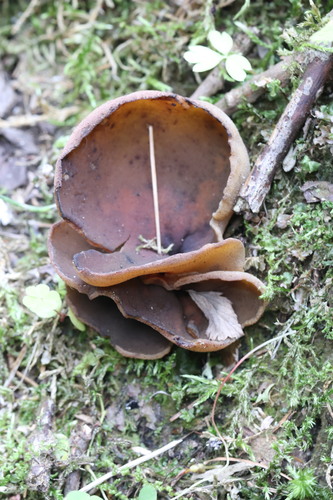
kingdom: Fungi
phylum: Ascomycota
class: Pezizomycetes
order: Pezizales
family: Pezizaceae
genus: Legaliana
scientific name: Legaliana
